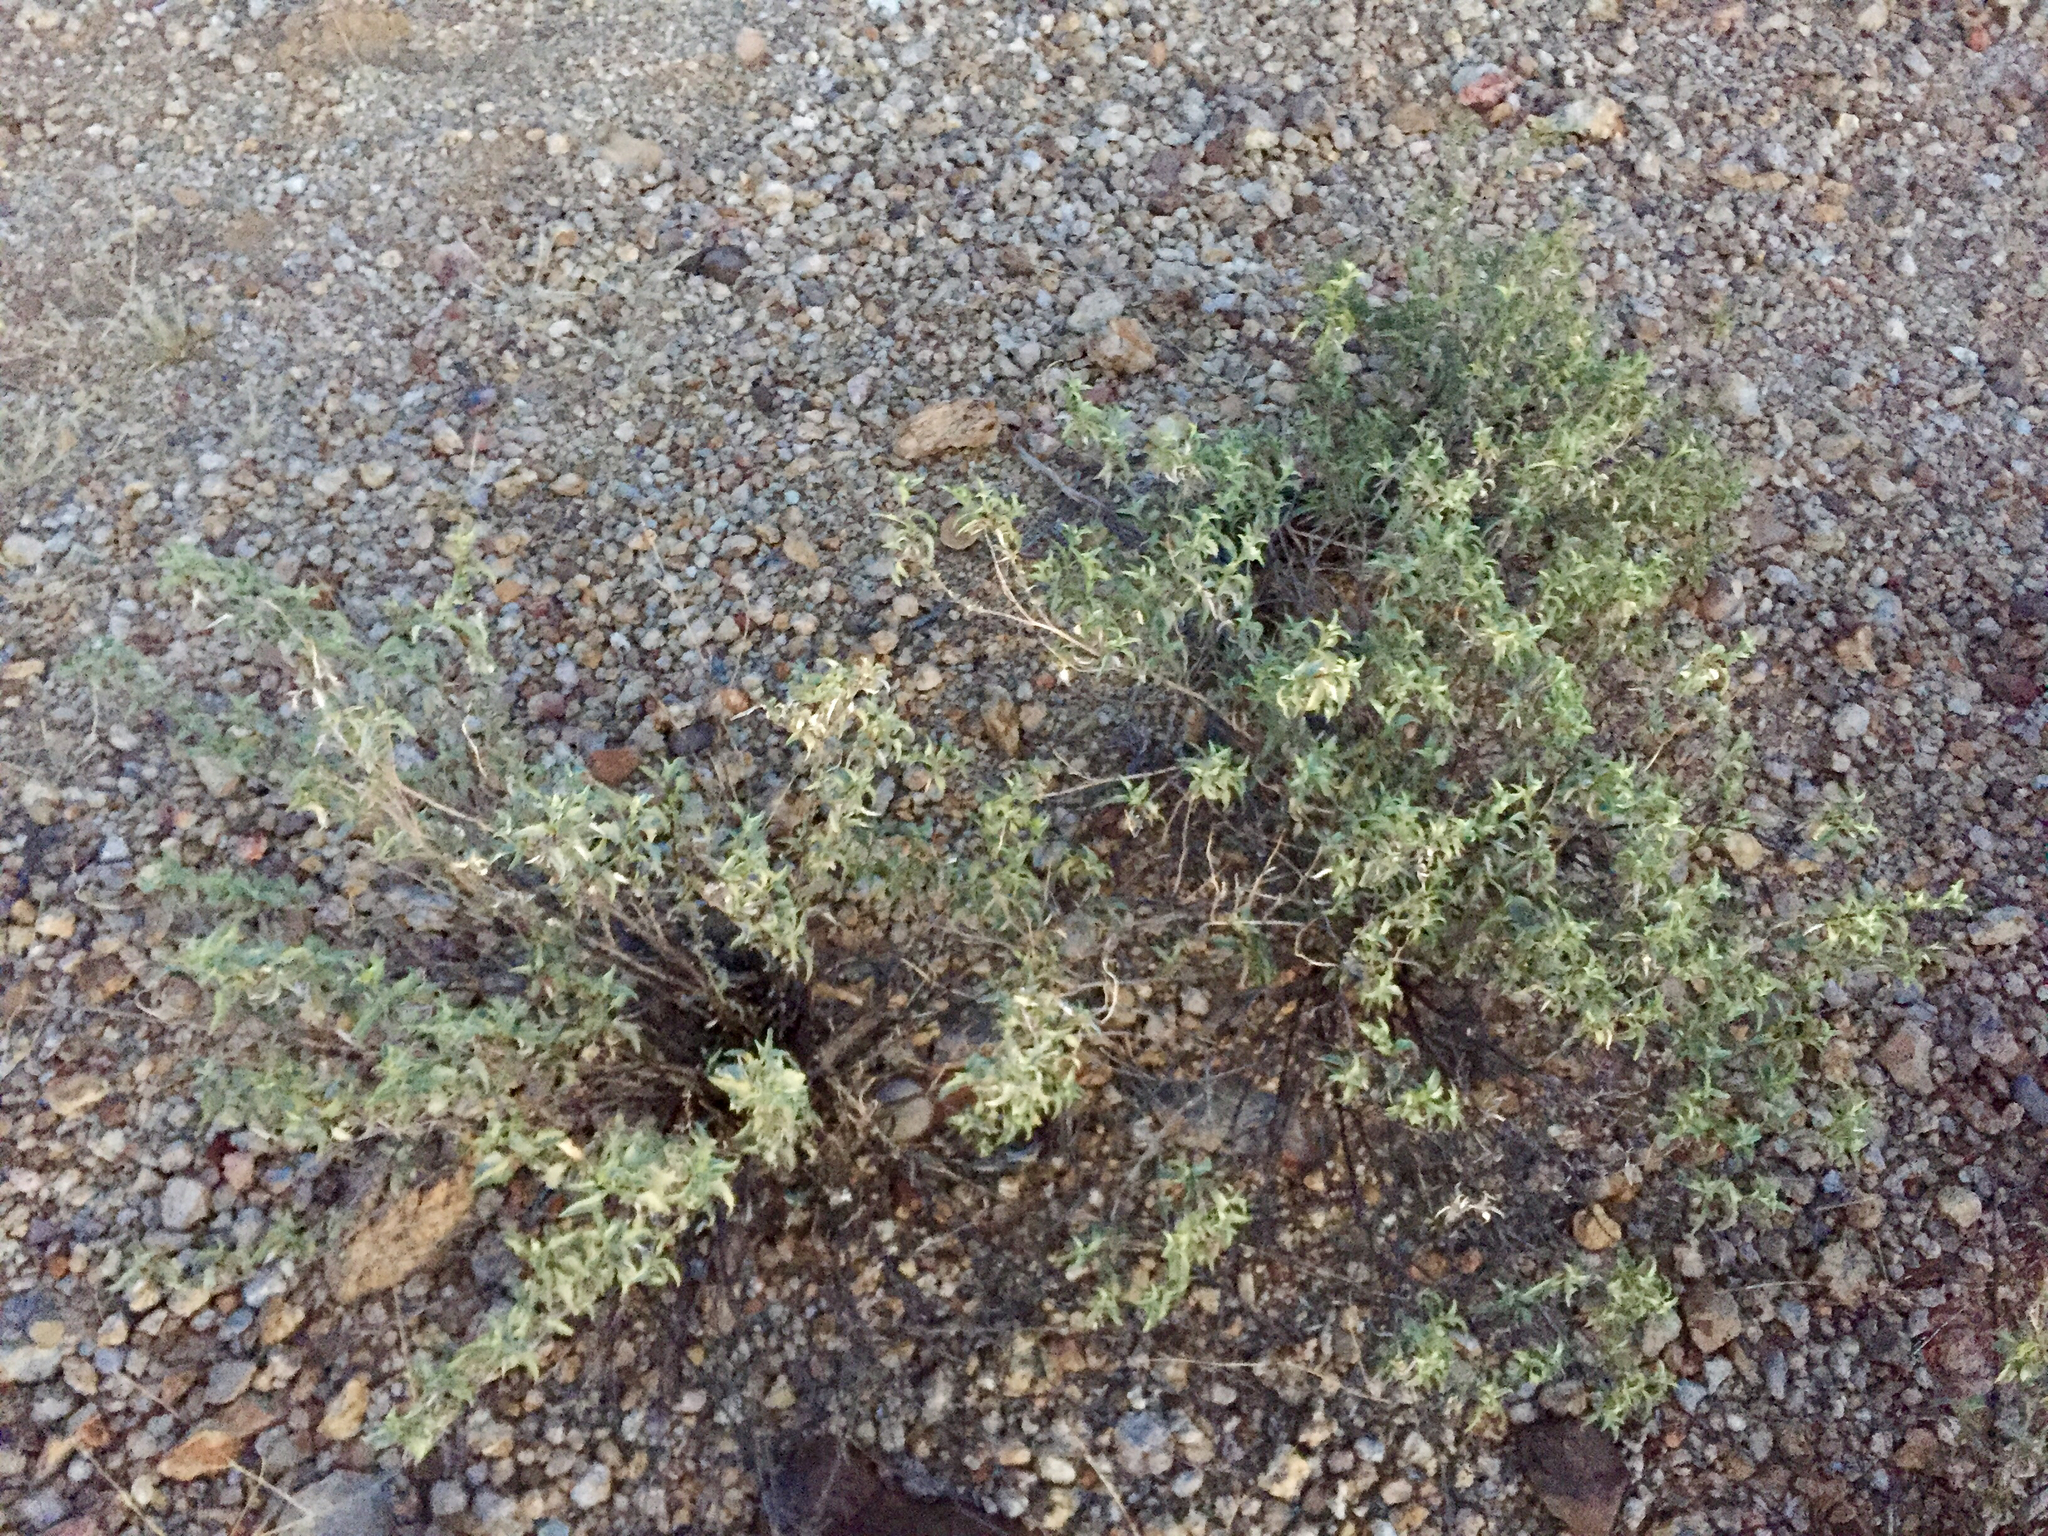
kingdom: Plantae
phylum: Tracheophyta
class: Magnoliopsida
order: Asterales
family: Asteraceae
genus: Ambrosia
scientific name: Ambrosia deltoidea
